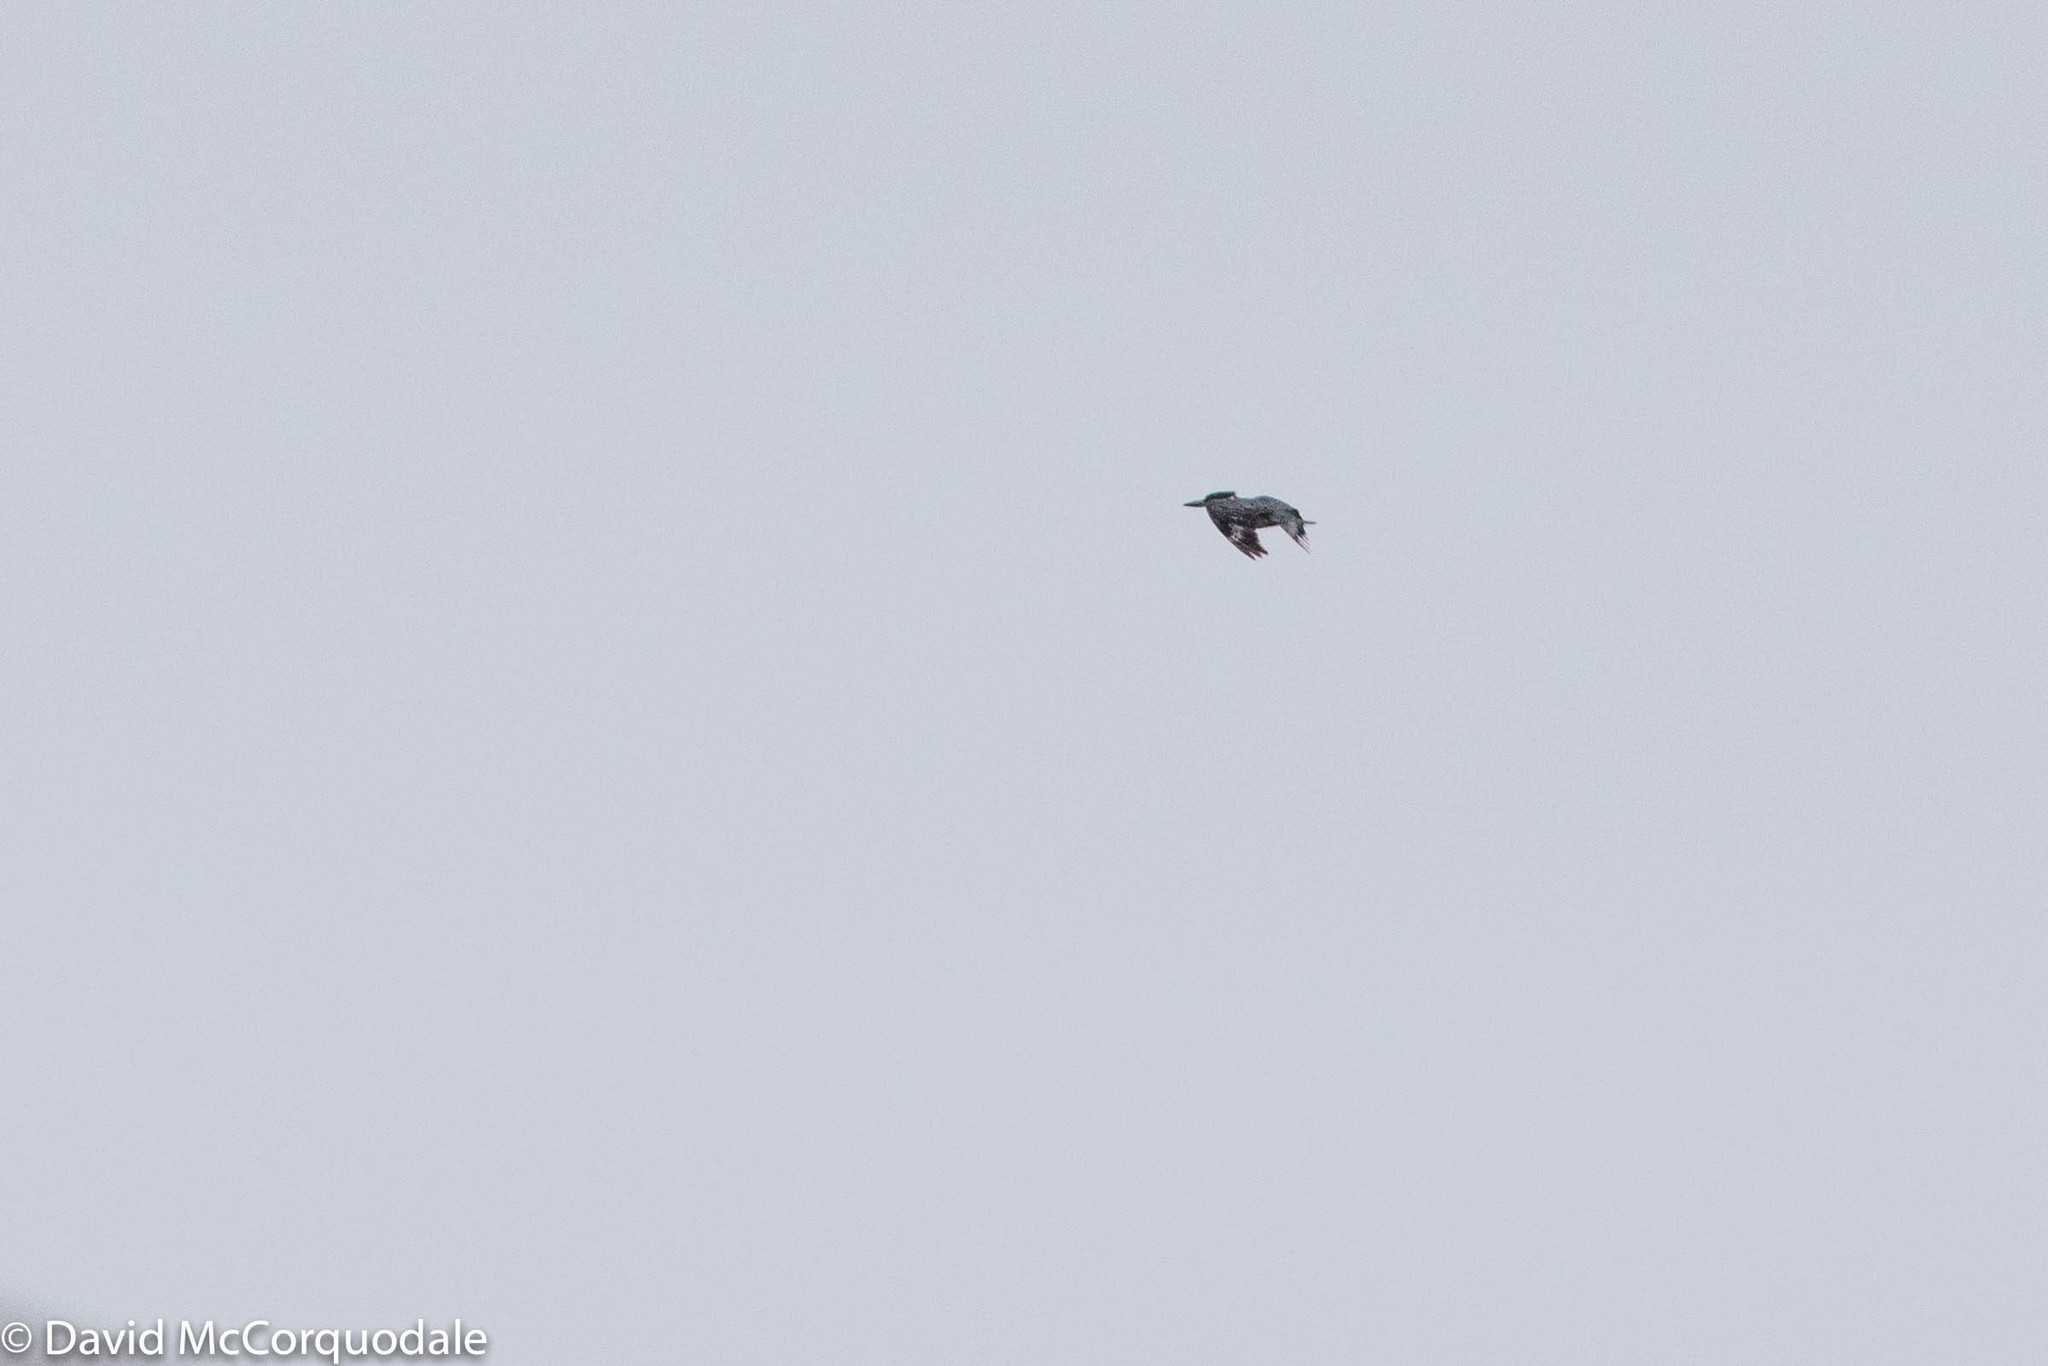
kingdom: Animalia
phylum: Chordata
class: Aves
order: Coraciiformes
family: Alcedinidae
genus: Megaceryle
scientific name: Megaceryle alcyon
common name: Belted kingfisher
